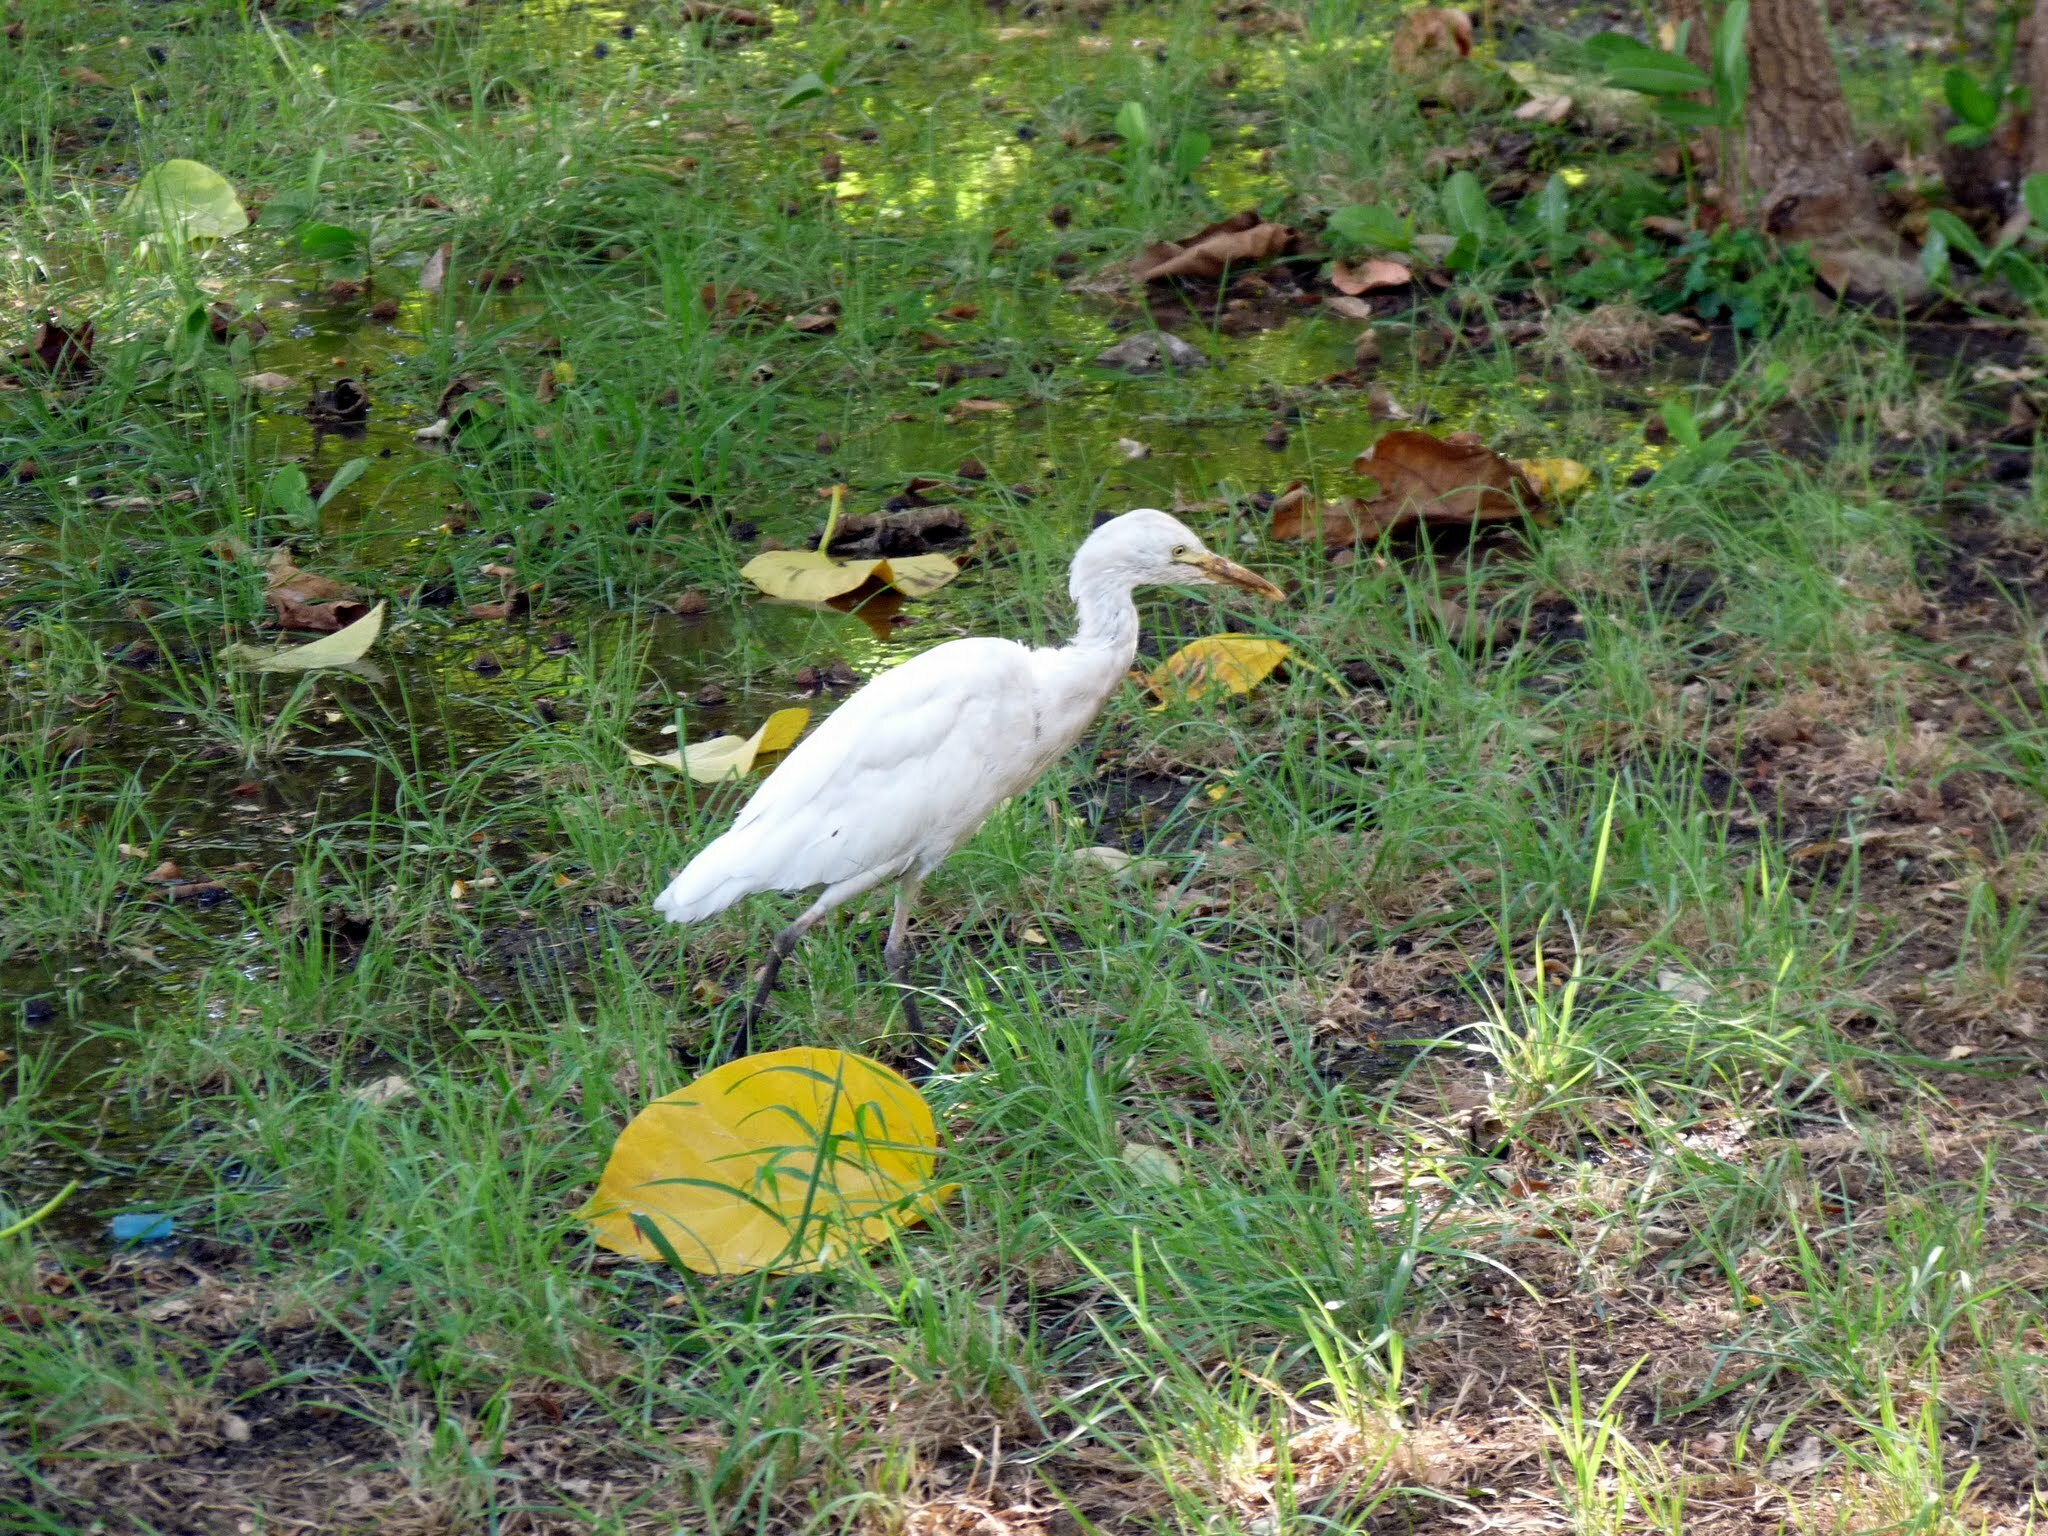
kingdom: Animalia
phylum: Chordata
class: Aves
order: Pelecaniformes
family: Ardeidae
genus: Bubulcus
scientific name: Bubulcus ibis
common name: Cattle egret
